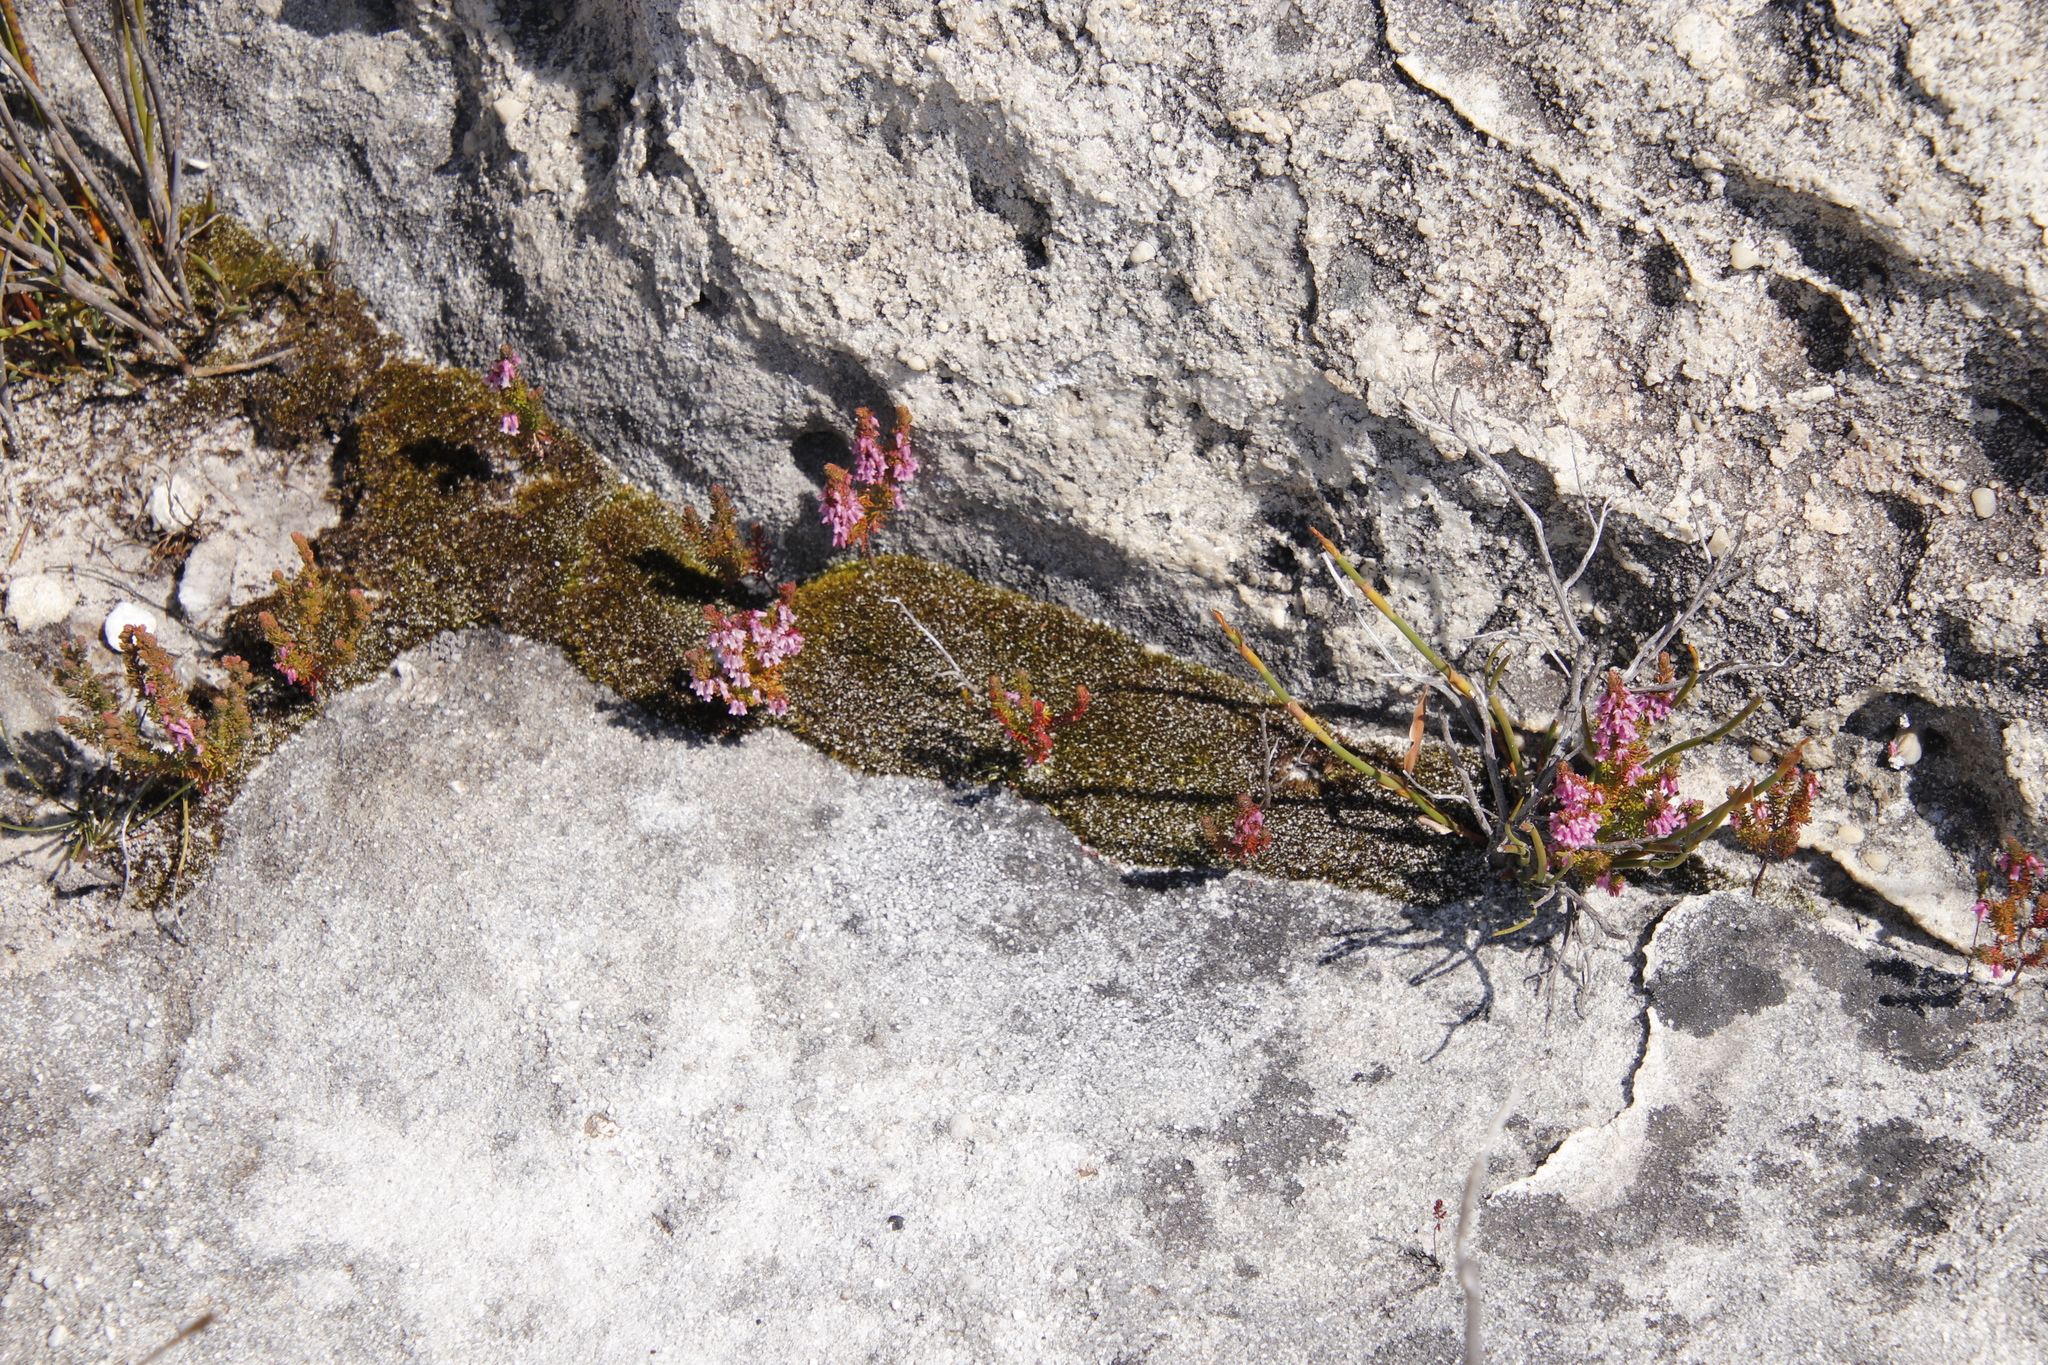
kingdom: Plantae
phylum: Tracheophyta
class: Magnoliopsida
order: Ericales
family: Ericaceae
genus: Erica
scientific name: Erica intervallaris
